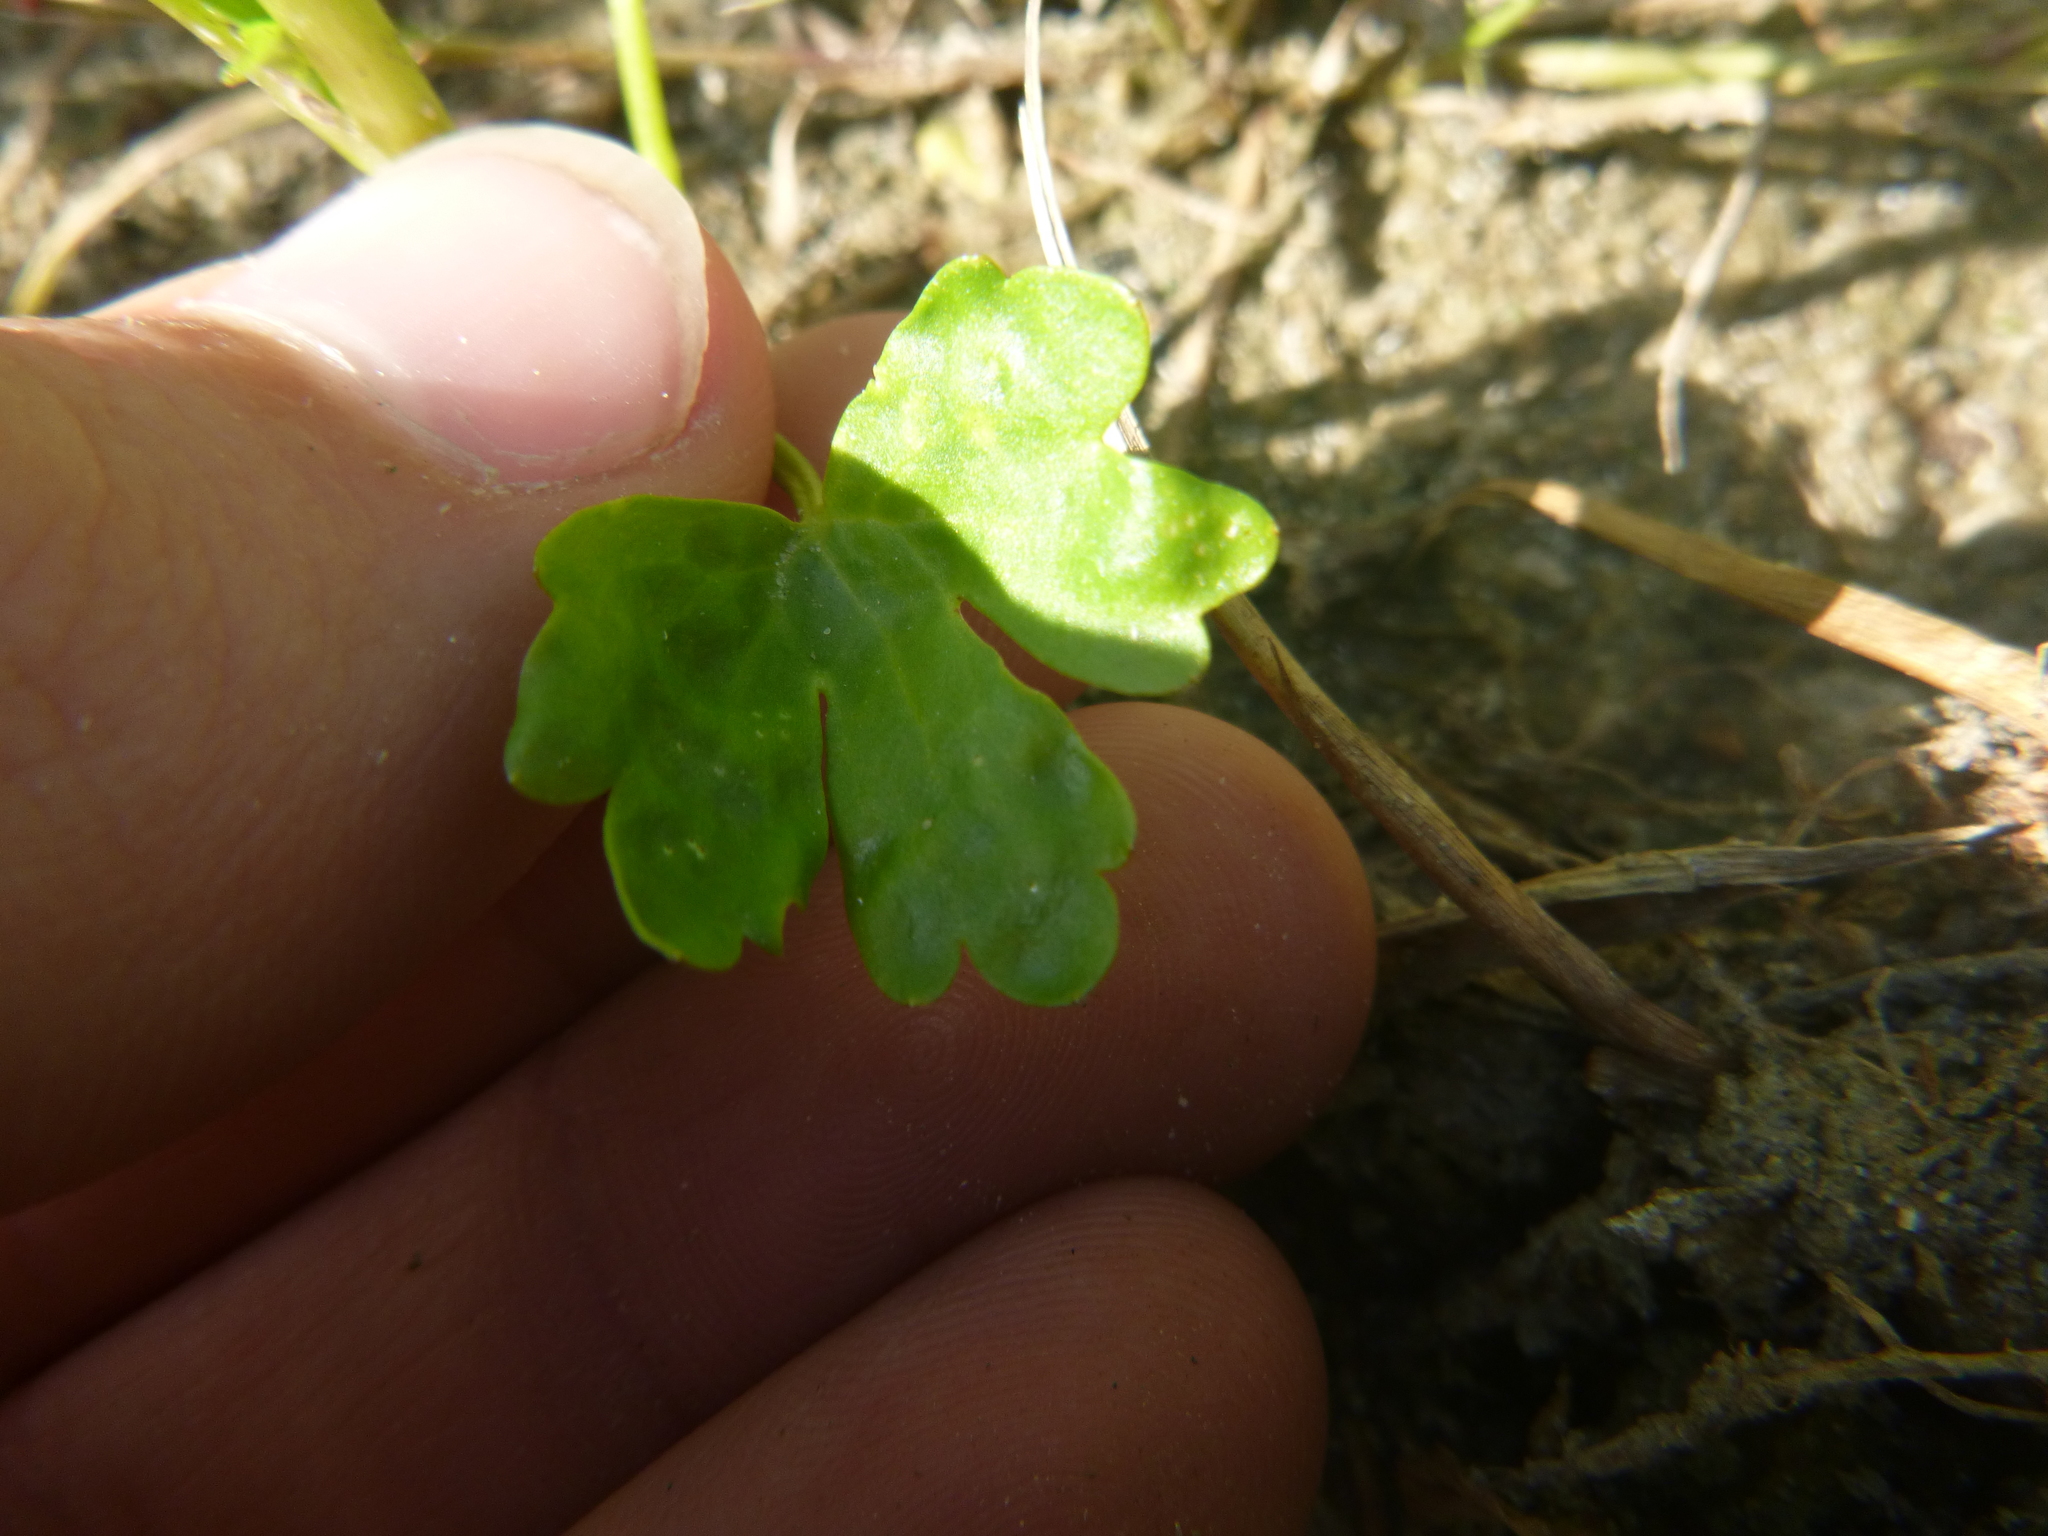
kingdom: Plantae
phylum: Tracheophyta
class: Magnoliopsida
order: Ranunculales
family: Ranunculaceae
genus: Ranunculus
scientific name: Ranunculus sceleratus
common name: Celery-leaved buttercup
